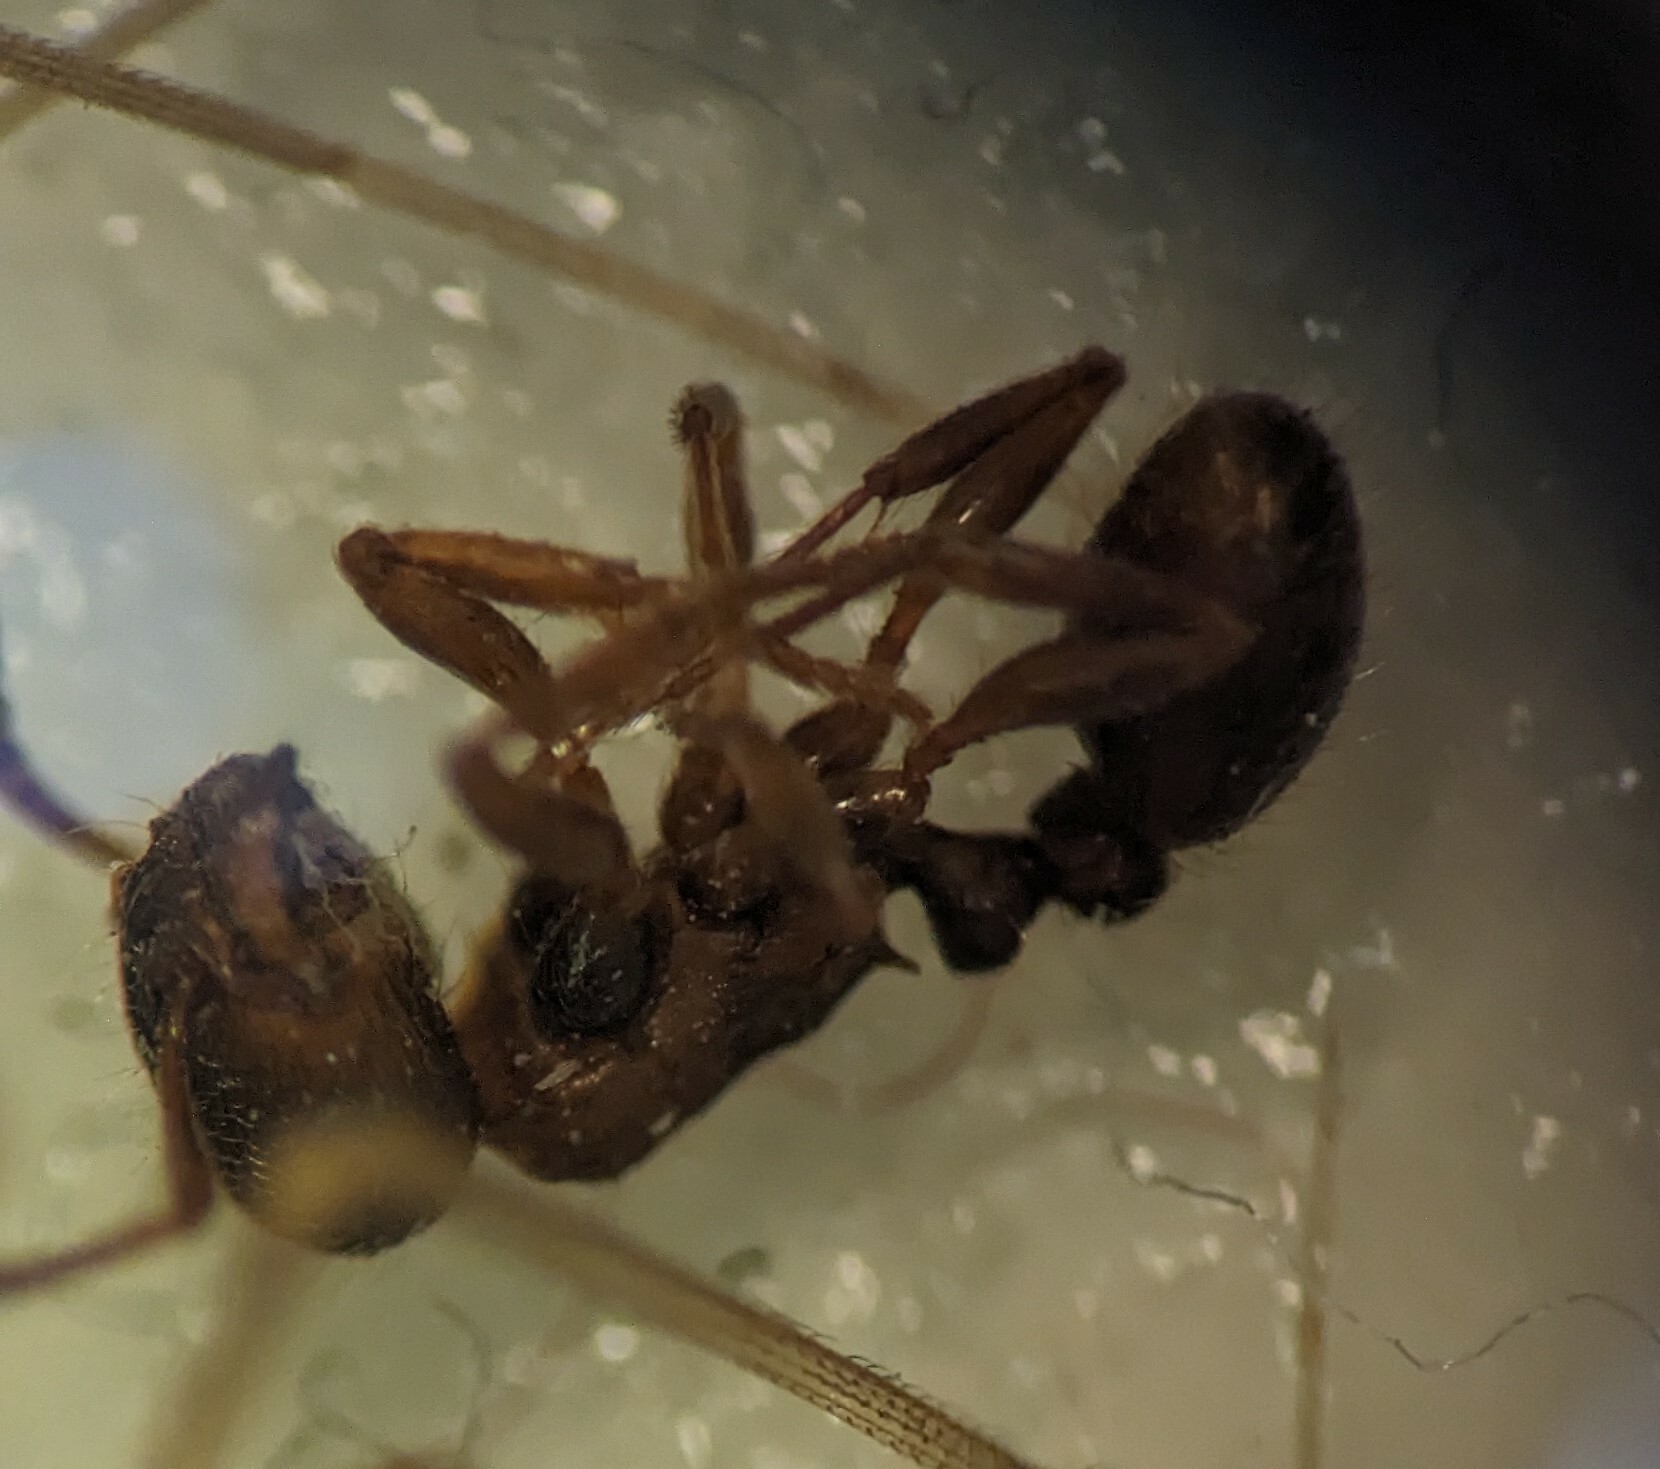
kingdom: Animalia
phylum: Arthropoda
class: Insecta
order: Hymenoptera
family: Formicidae
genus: Tetramorium
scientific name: Tetramorium immigrans
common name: Pavement ant
